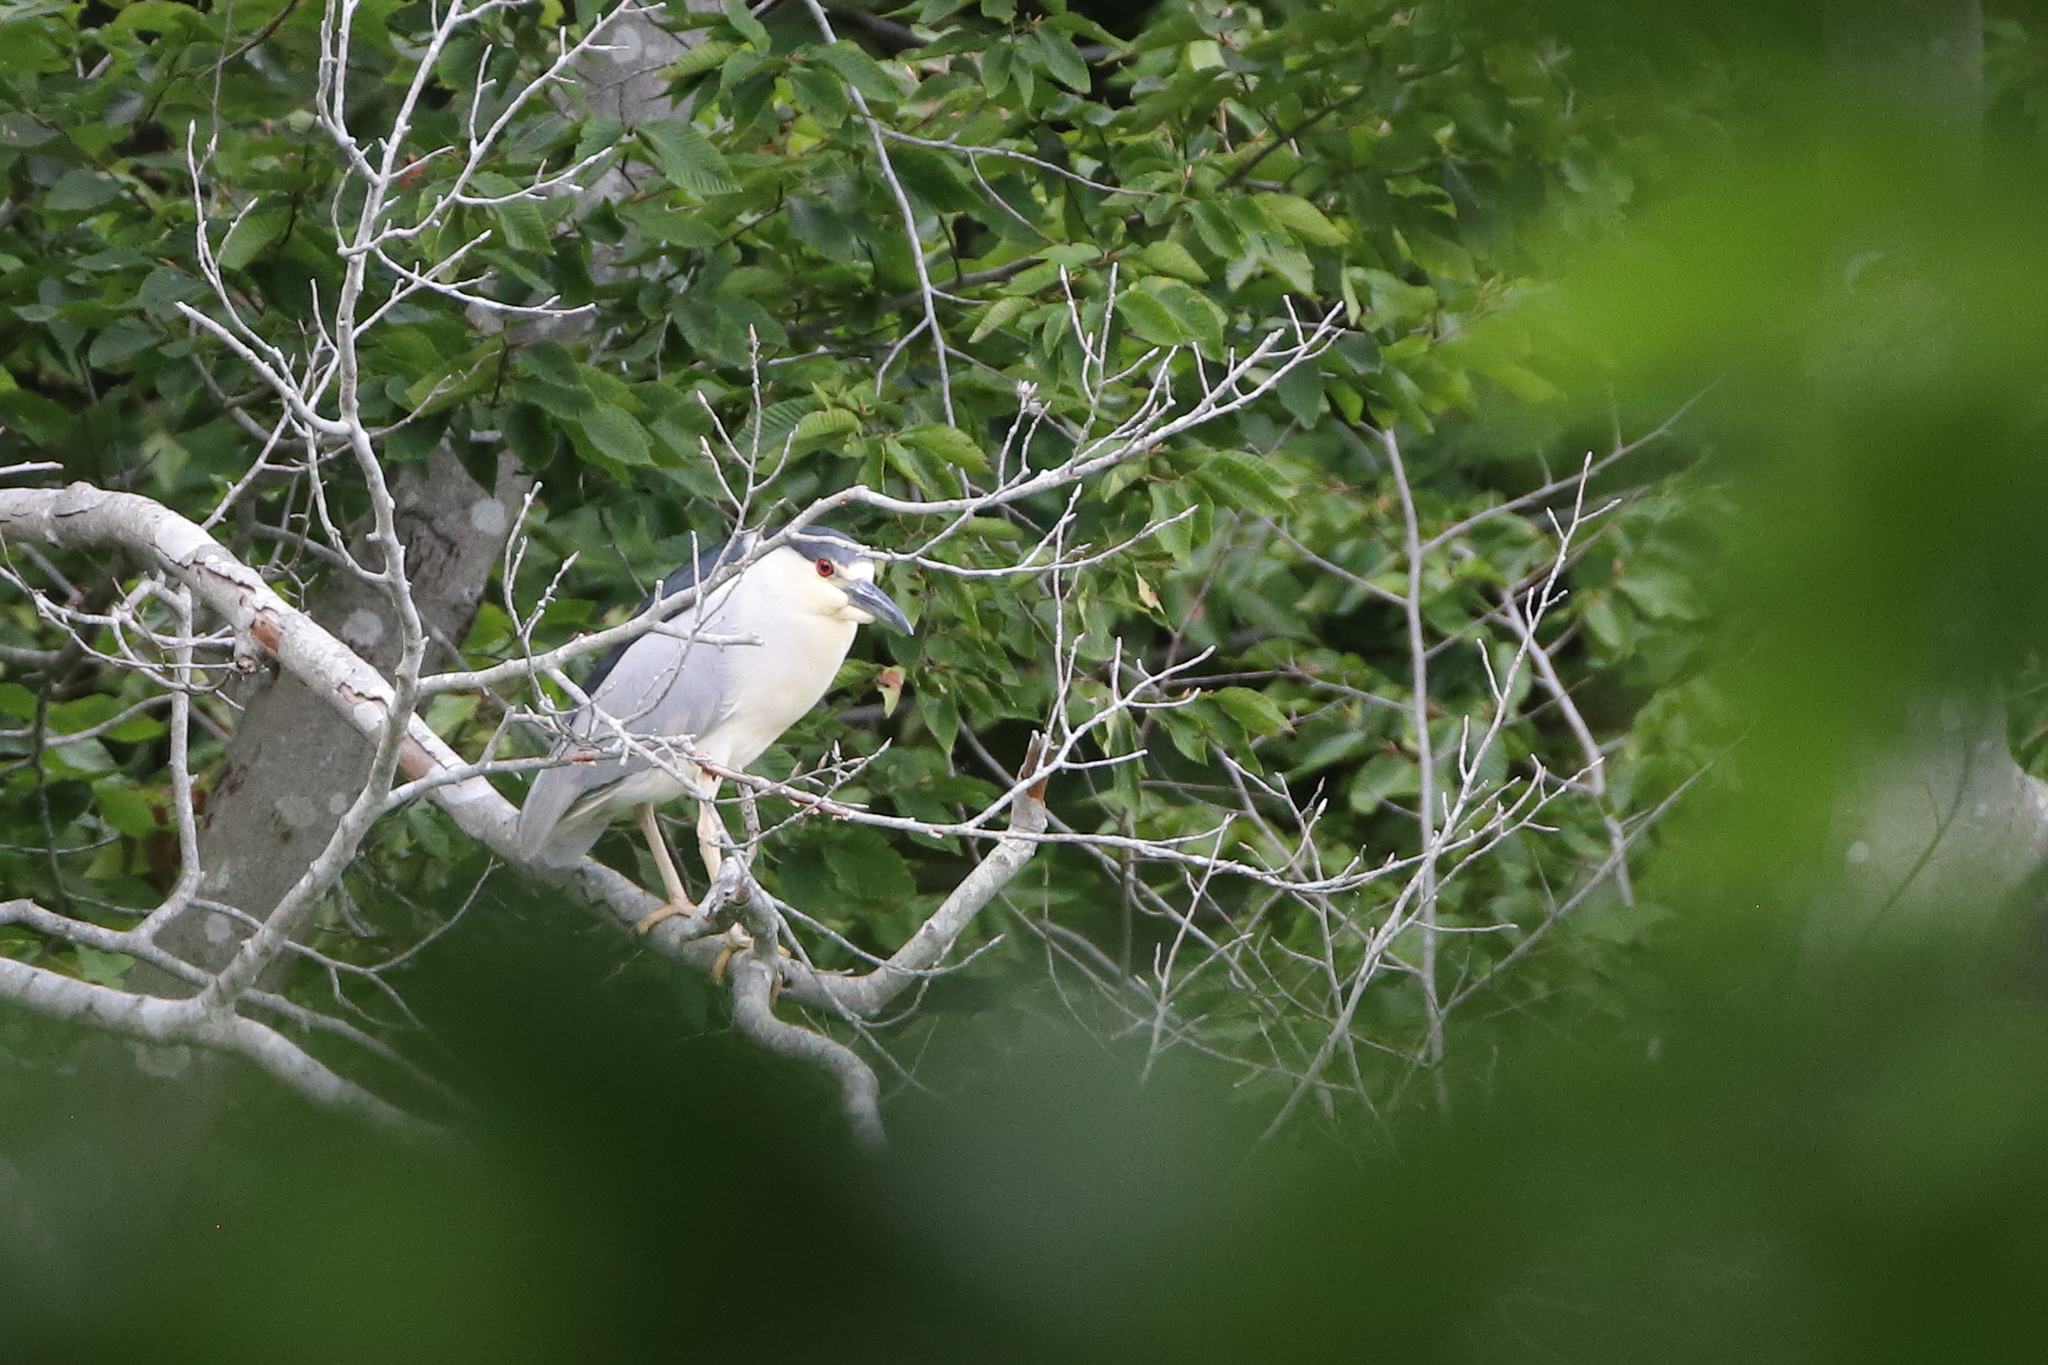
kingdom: Animalia
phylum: Chordata
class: Aves
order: Pelecaniformes
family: Ardeidae
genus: Nycticorax
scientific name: Nycticorax nycticorax
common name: Black-crowned night heron
